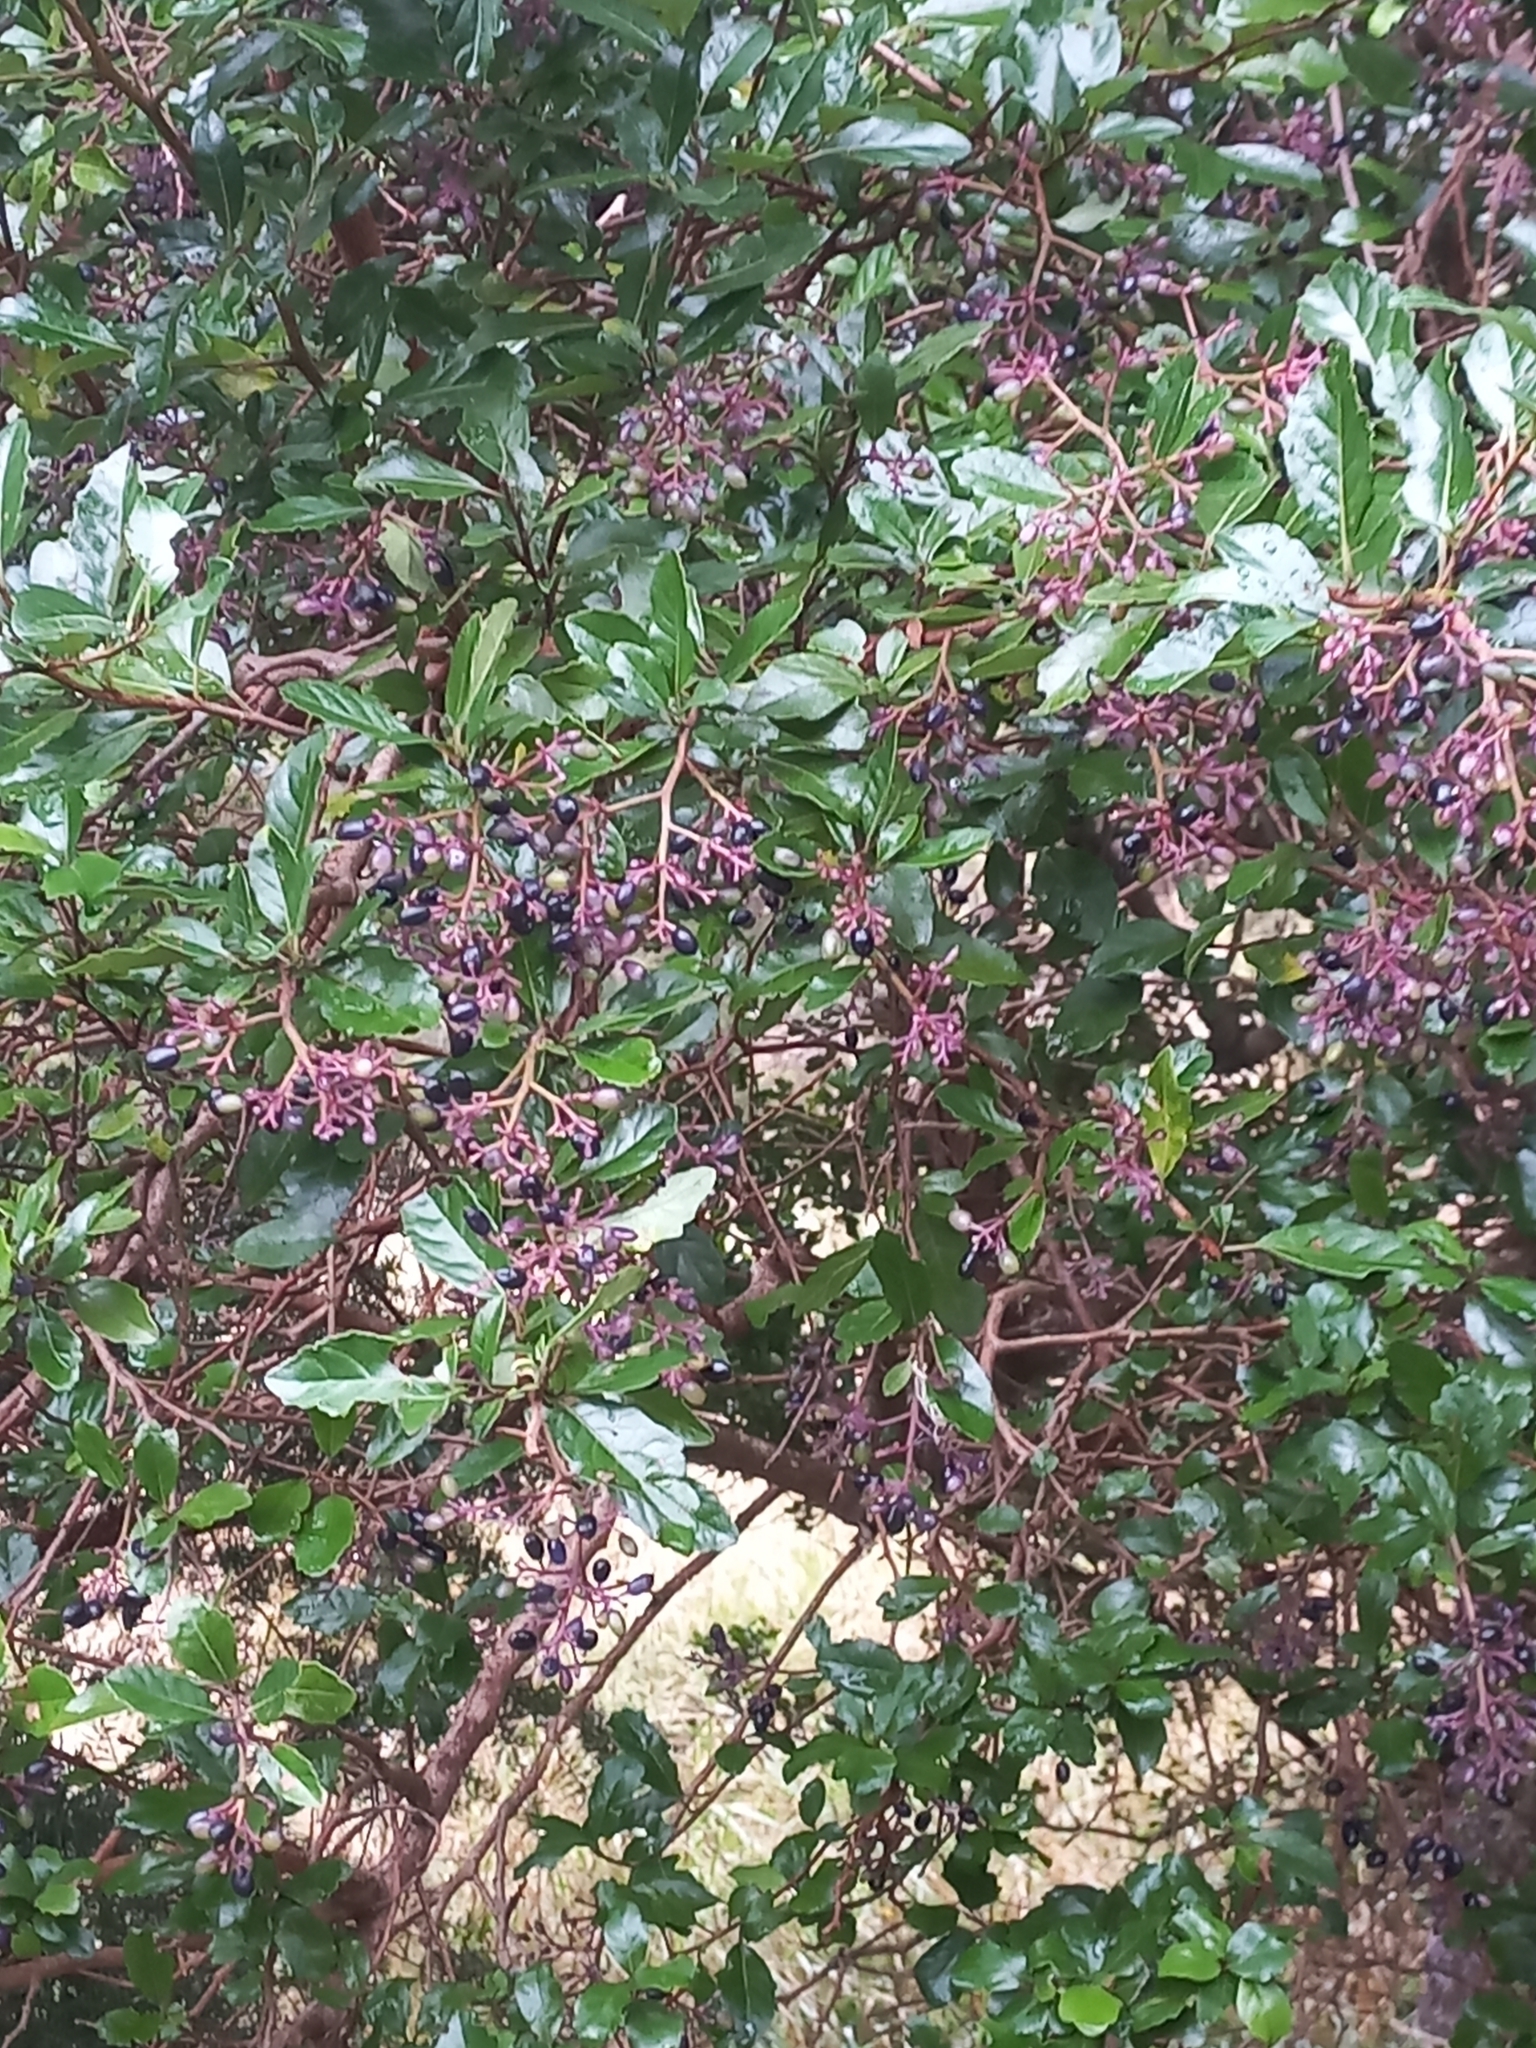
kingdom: Plantae
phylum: Tracheophyta
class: Magnoliopsida
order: Apiales
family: Pennantiaceae
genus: Pennantia
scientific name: Pennantia corymbosa
